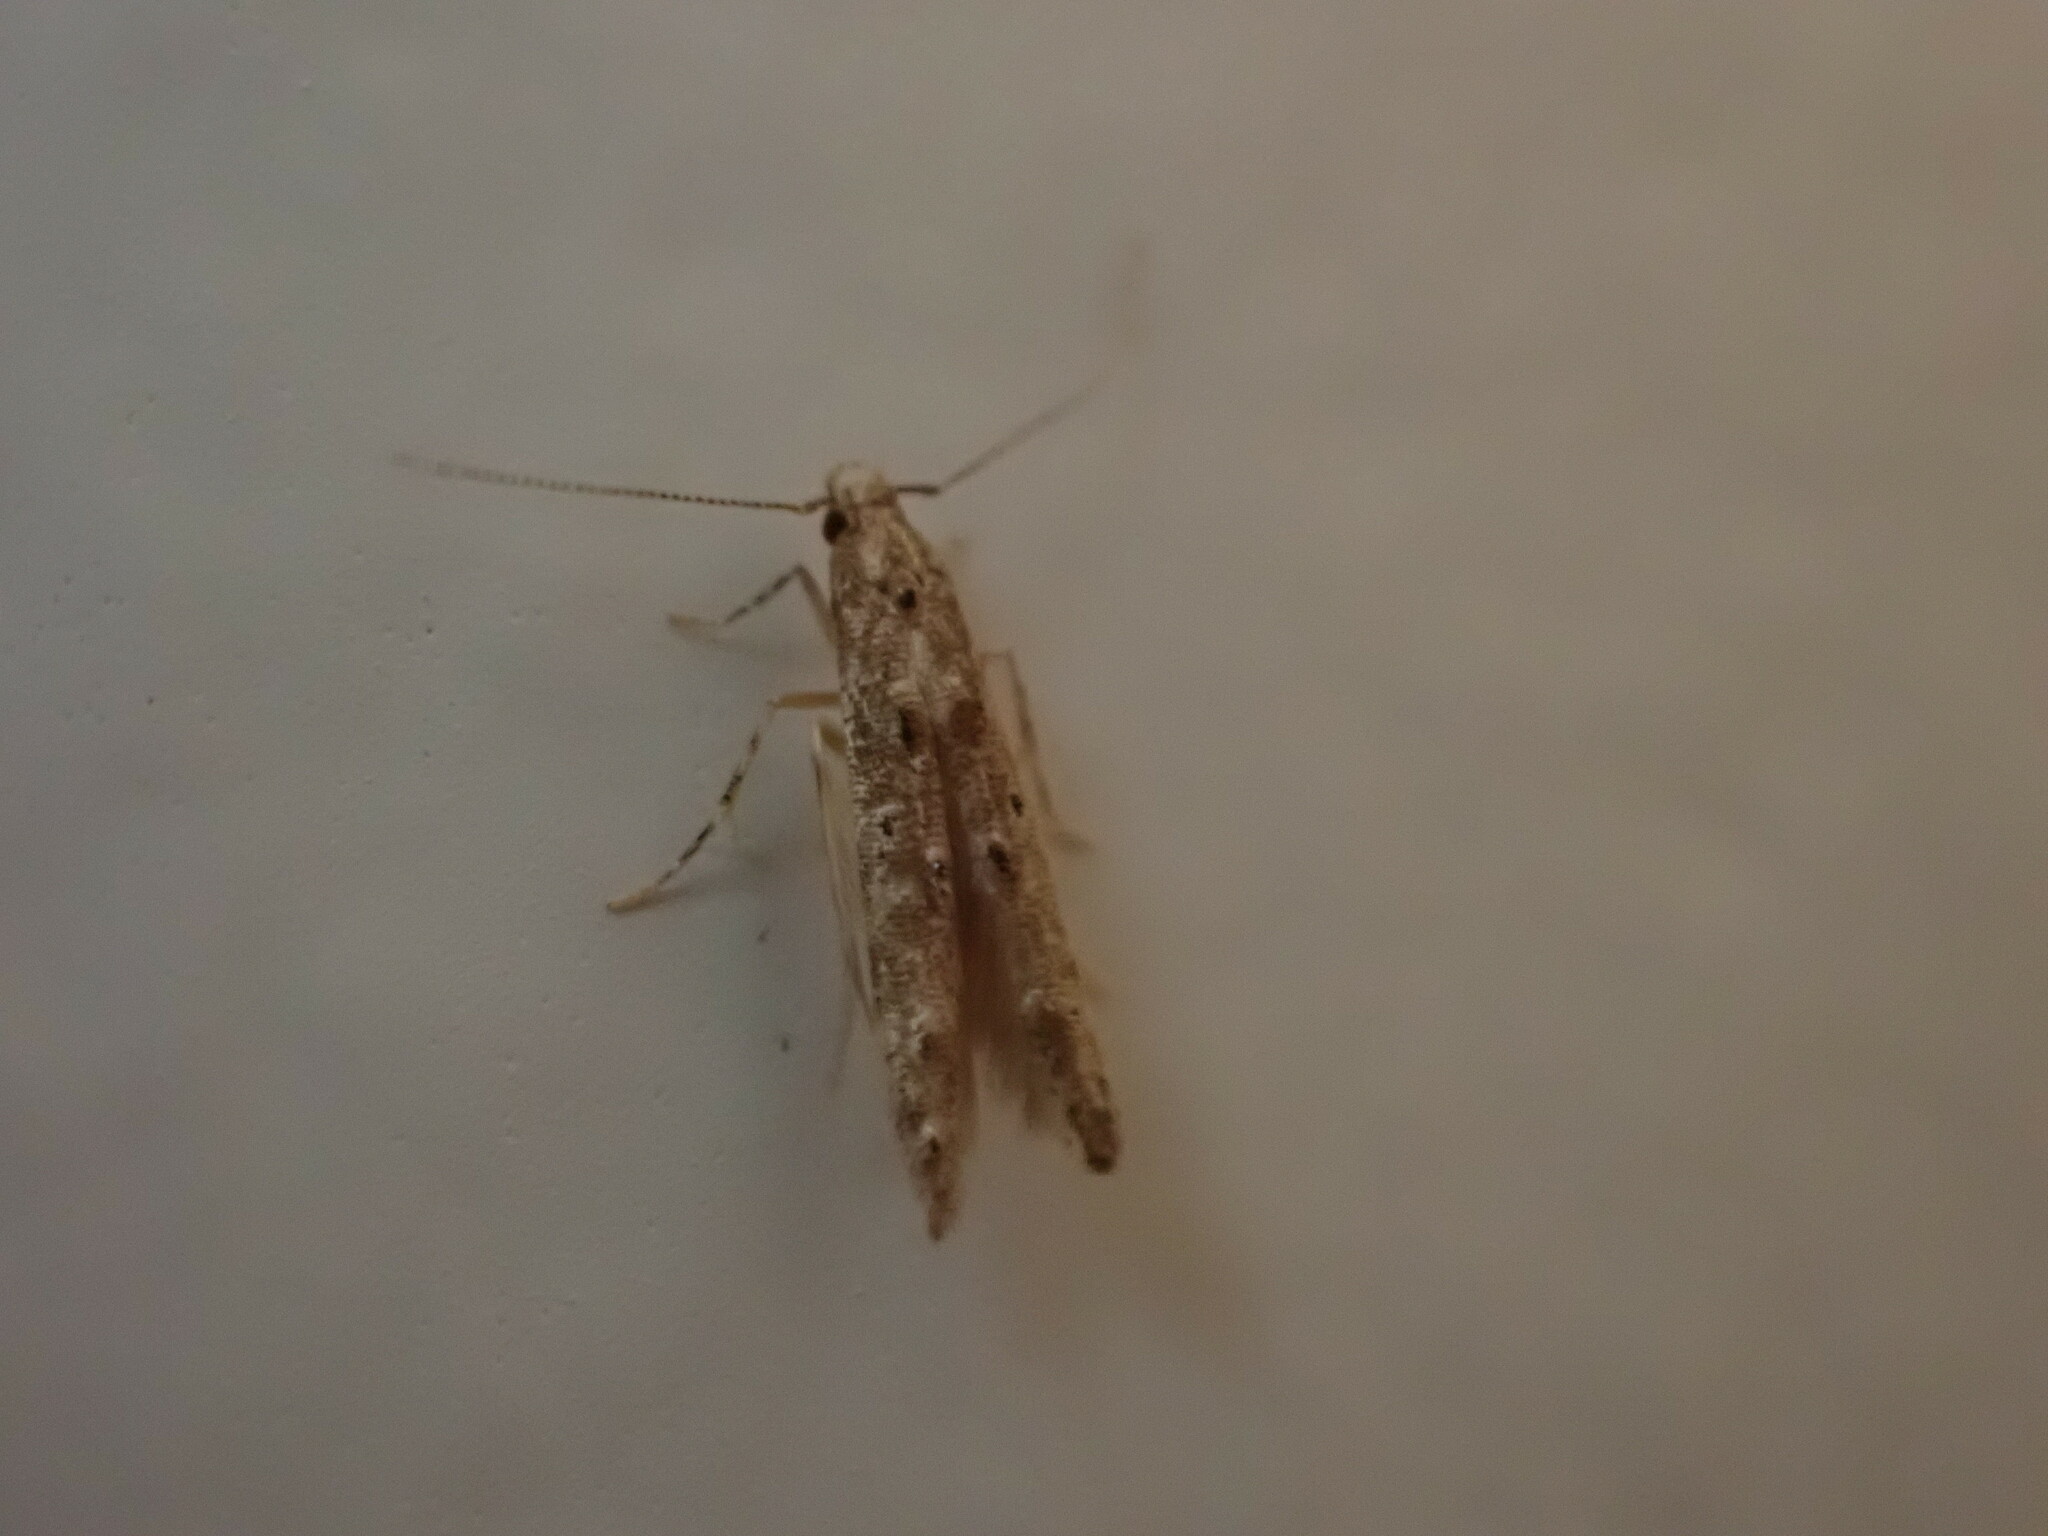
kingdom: Animalia
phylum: Arthropoda
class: Insecta
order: Lepidoptera
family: Elachistidae
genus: Microcolona
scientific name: Microcolona limodes
